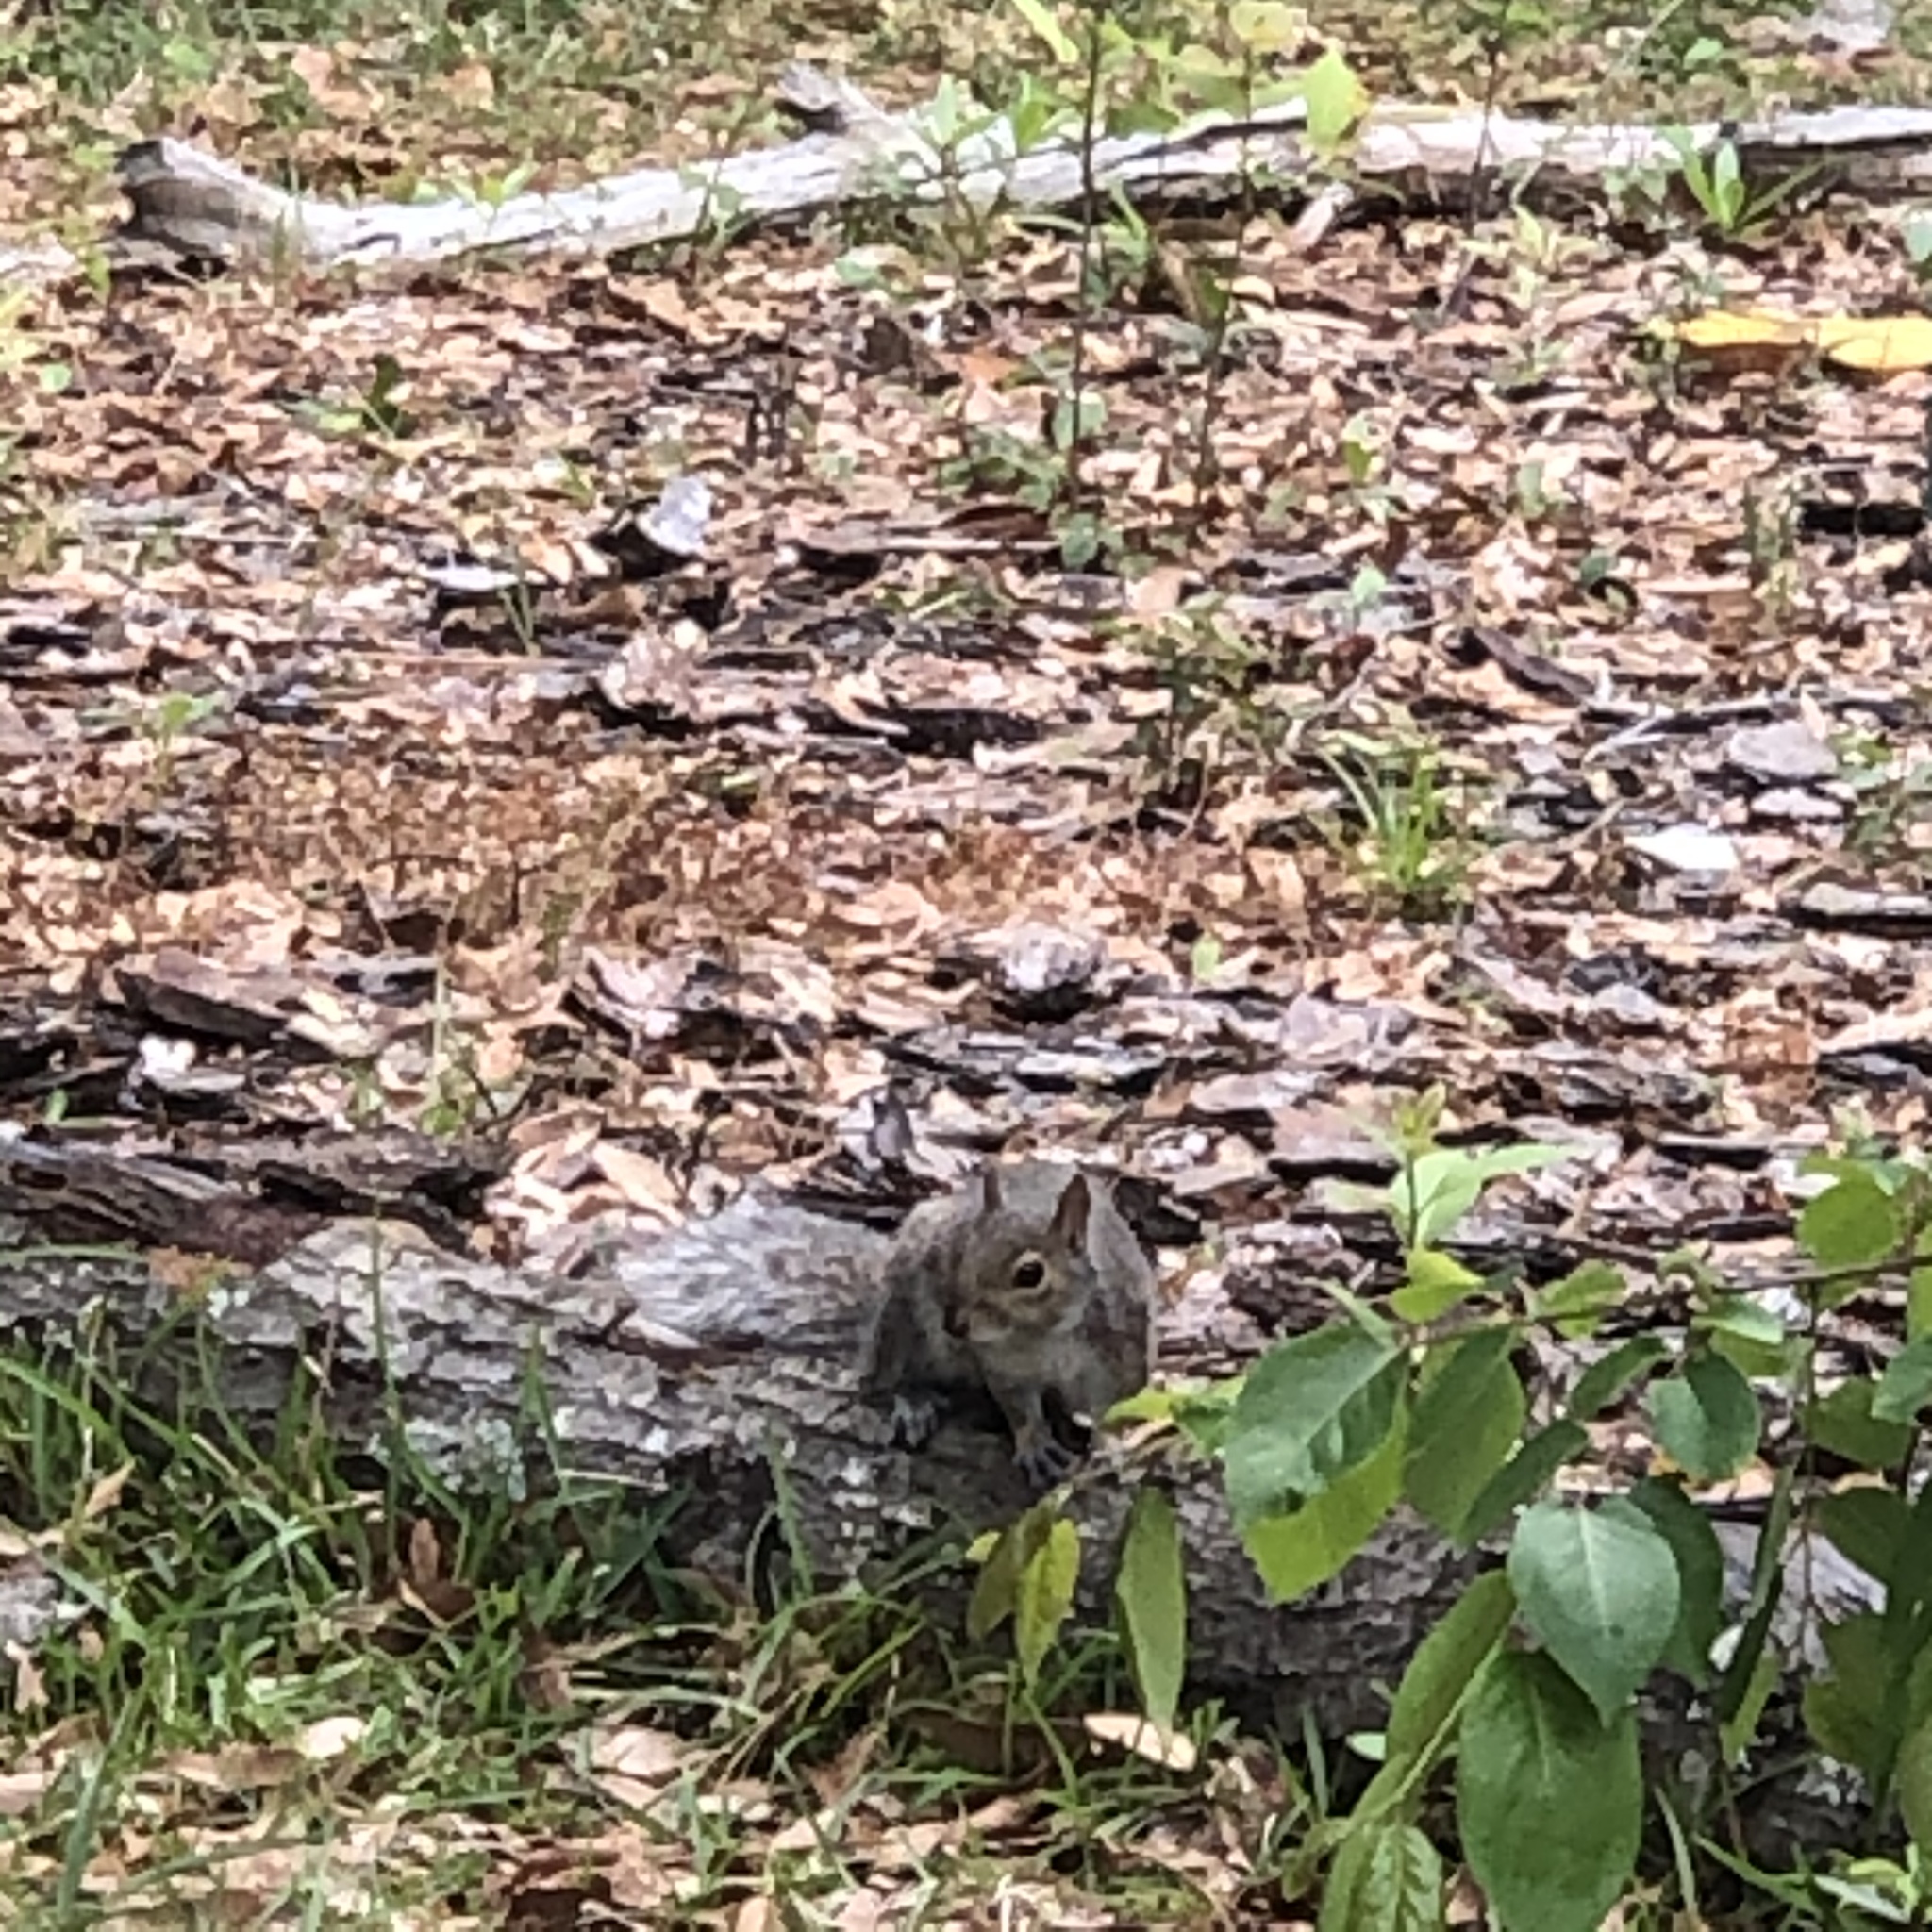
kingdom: Animalia
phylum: Chordata
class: Mammalia
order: Rodentia
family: Sciuridae
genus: Sciurus
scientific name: Sciurus carolinensis
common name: Eastern gray squirrel
